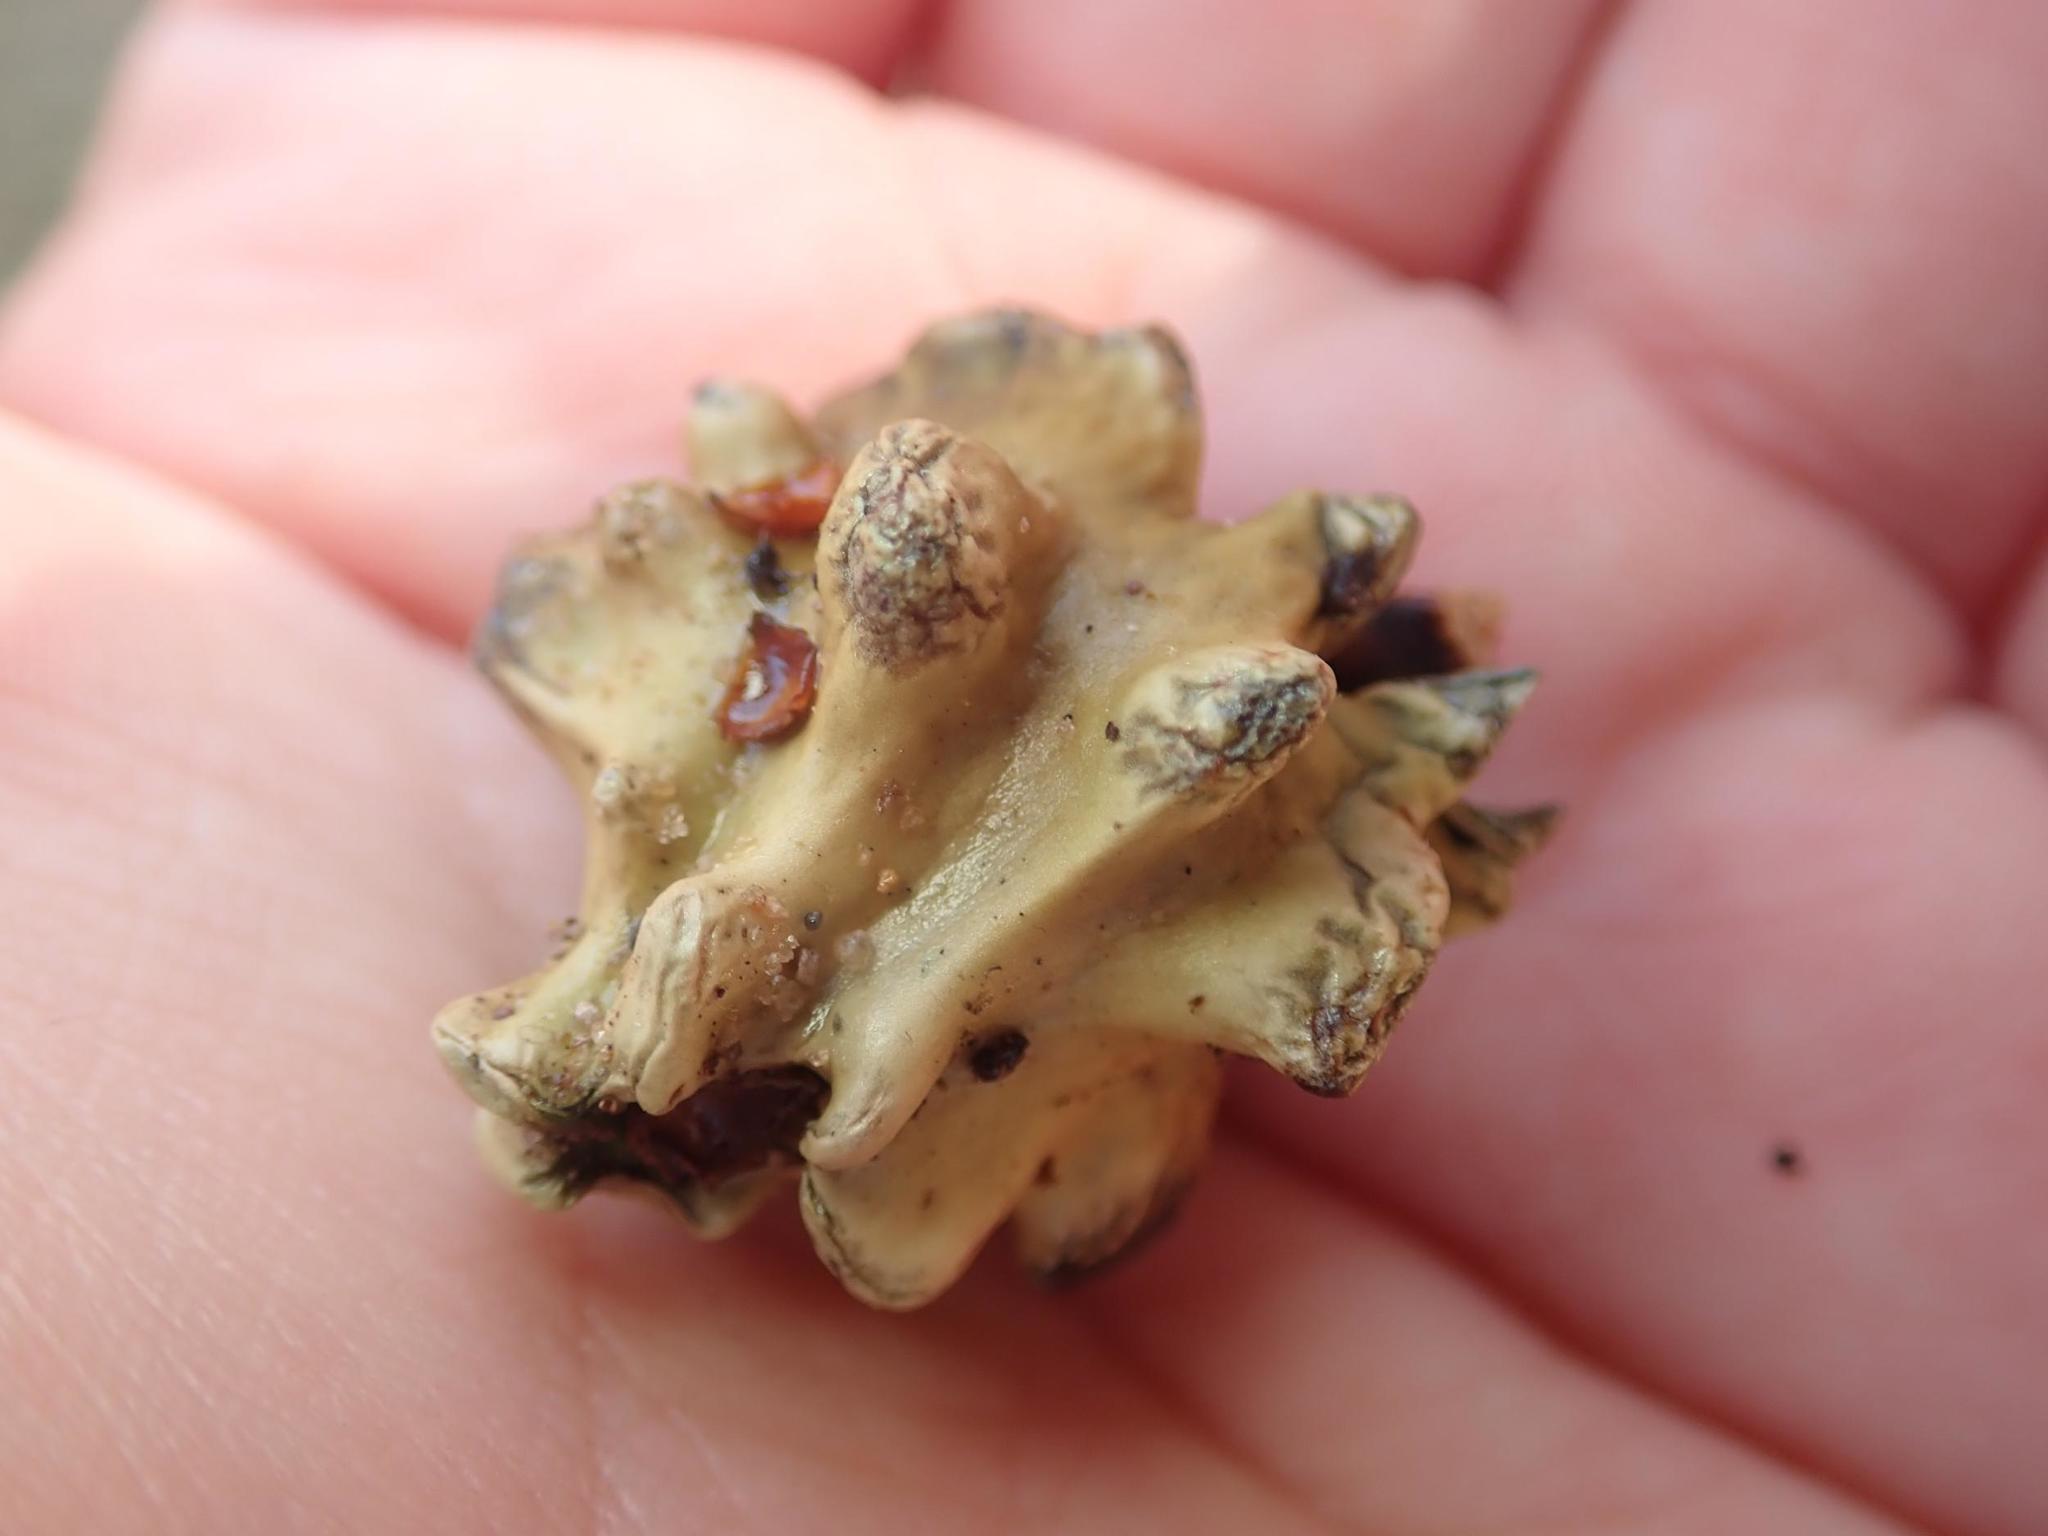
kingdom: Animalia
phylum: Arthropoda
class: Insecta
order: Hymenoptera
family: Cynipidae
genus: Andricus
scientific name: Andricus quercuscalicis
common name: Knopper gall
